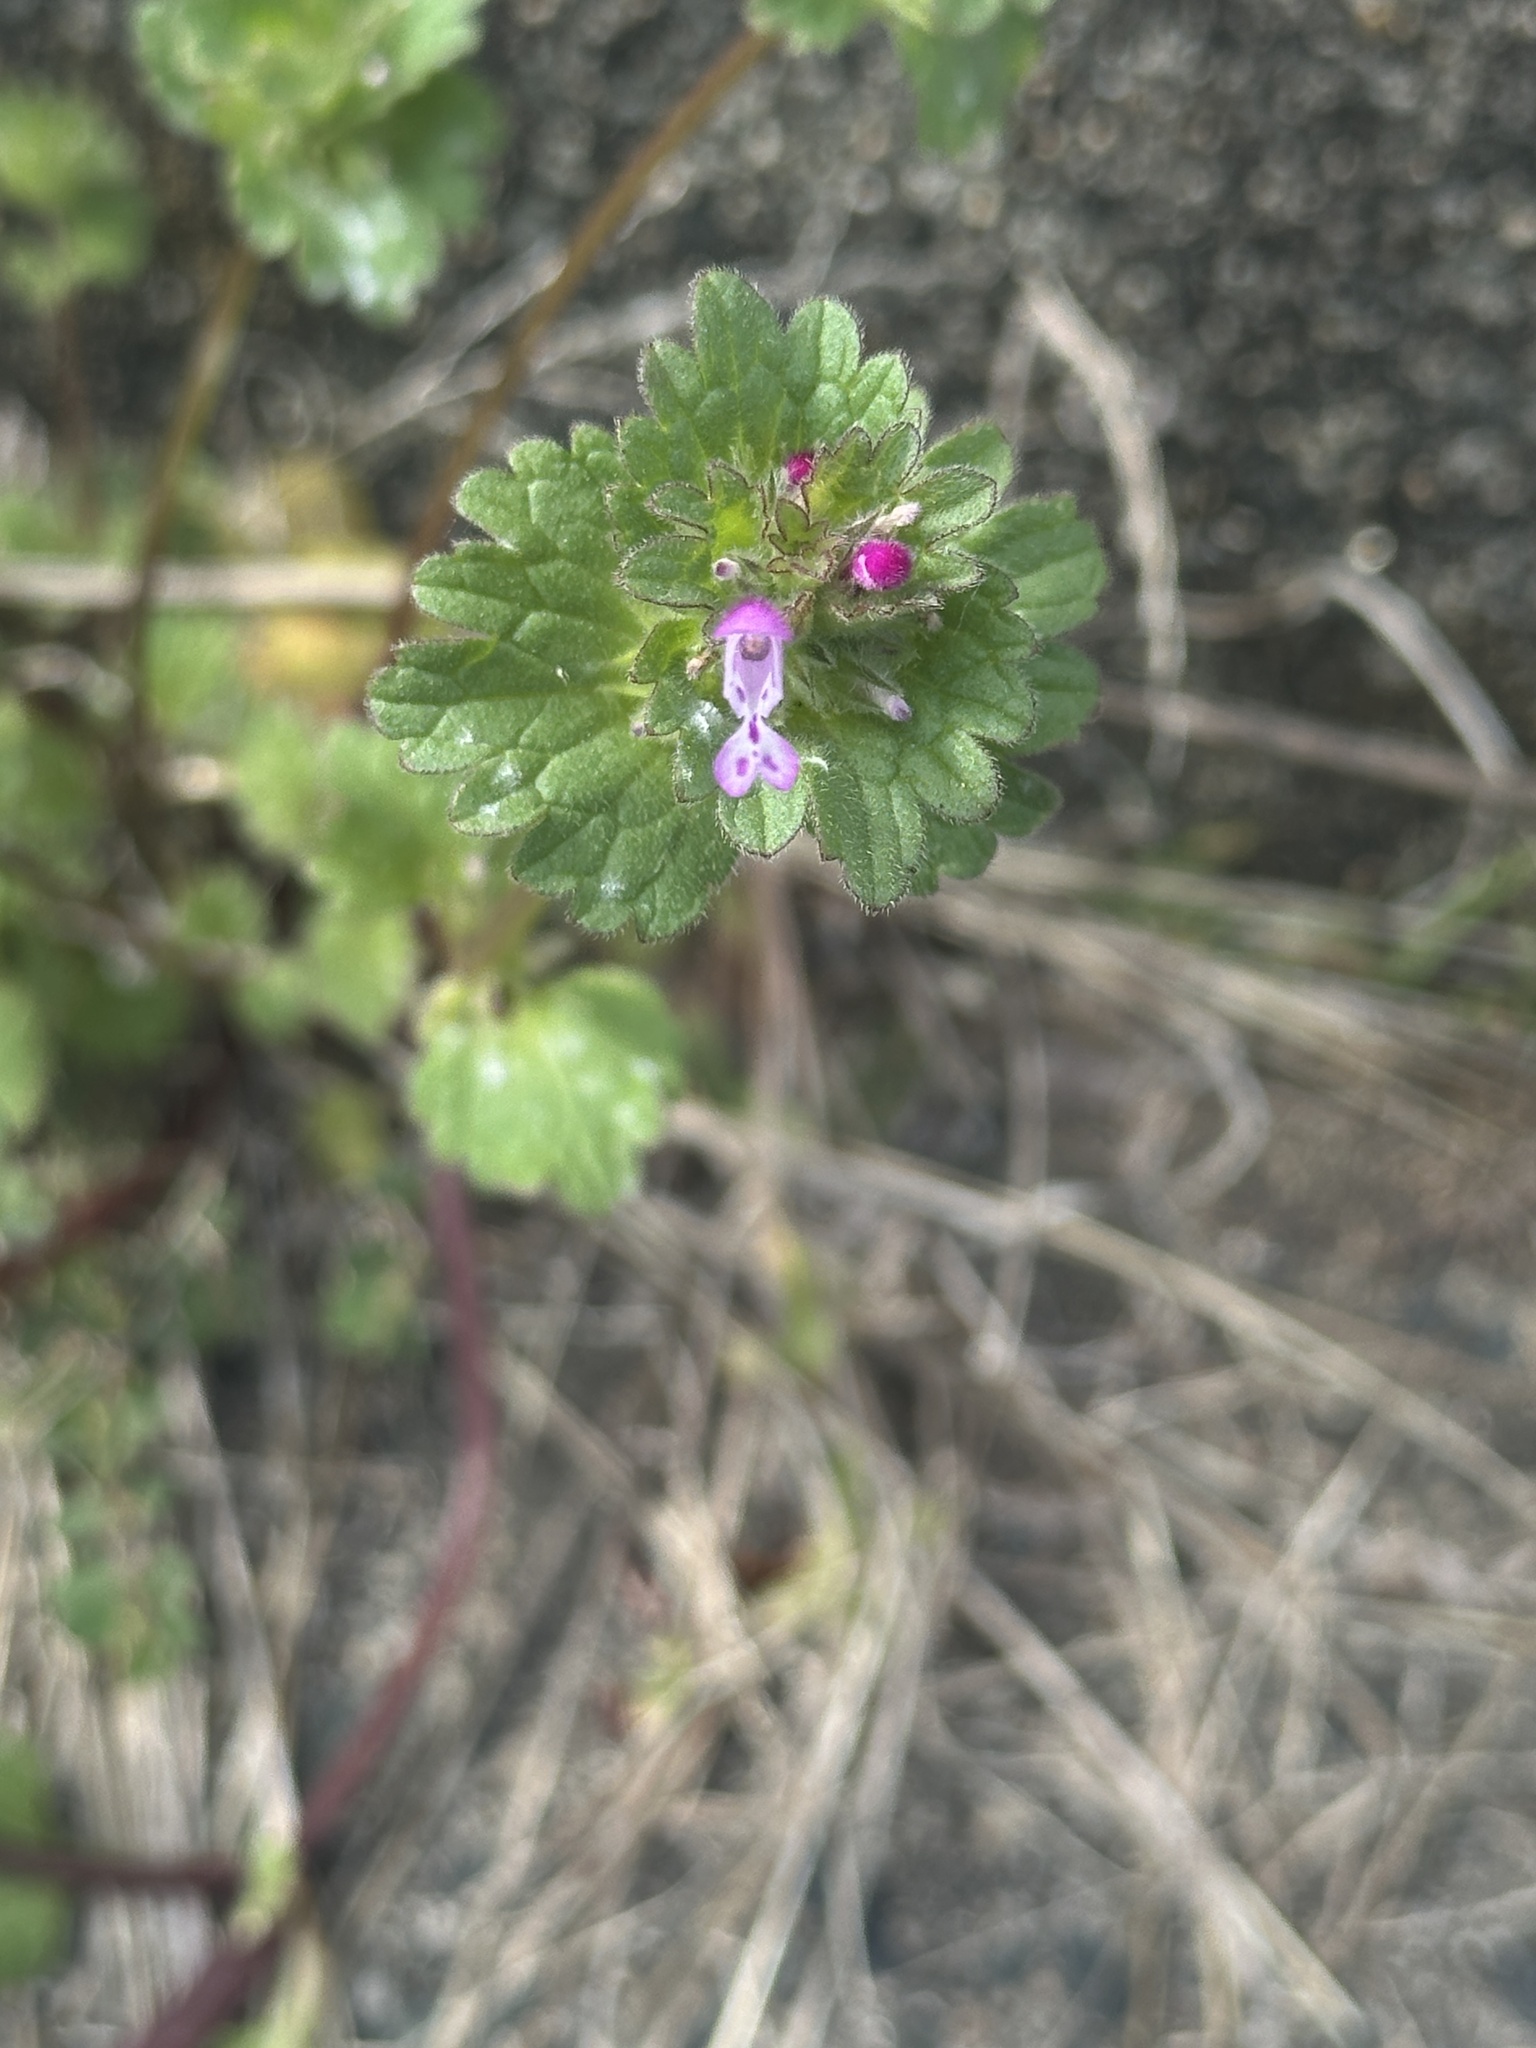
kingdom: Plantae
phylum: Tracheophyta
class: Magnoliopsida
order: Lamiales
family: Lamiaceae
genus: Lamium
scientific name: Lamium amplexicaule
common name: Henbit dead-nettle
